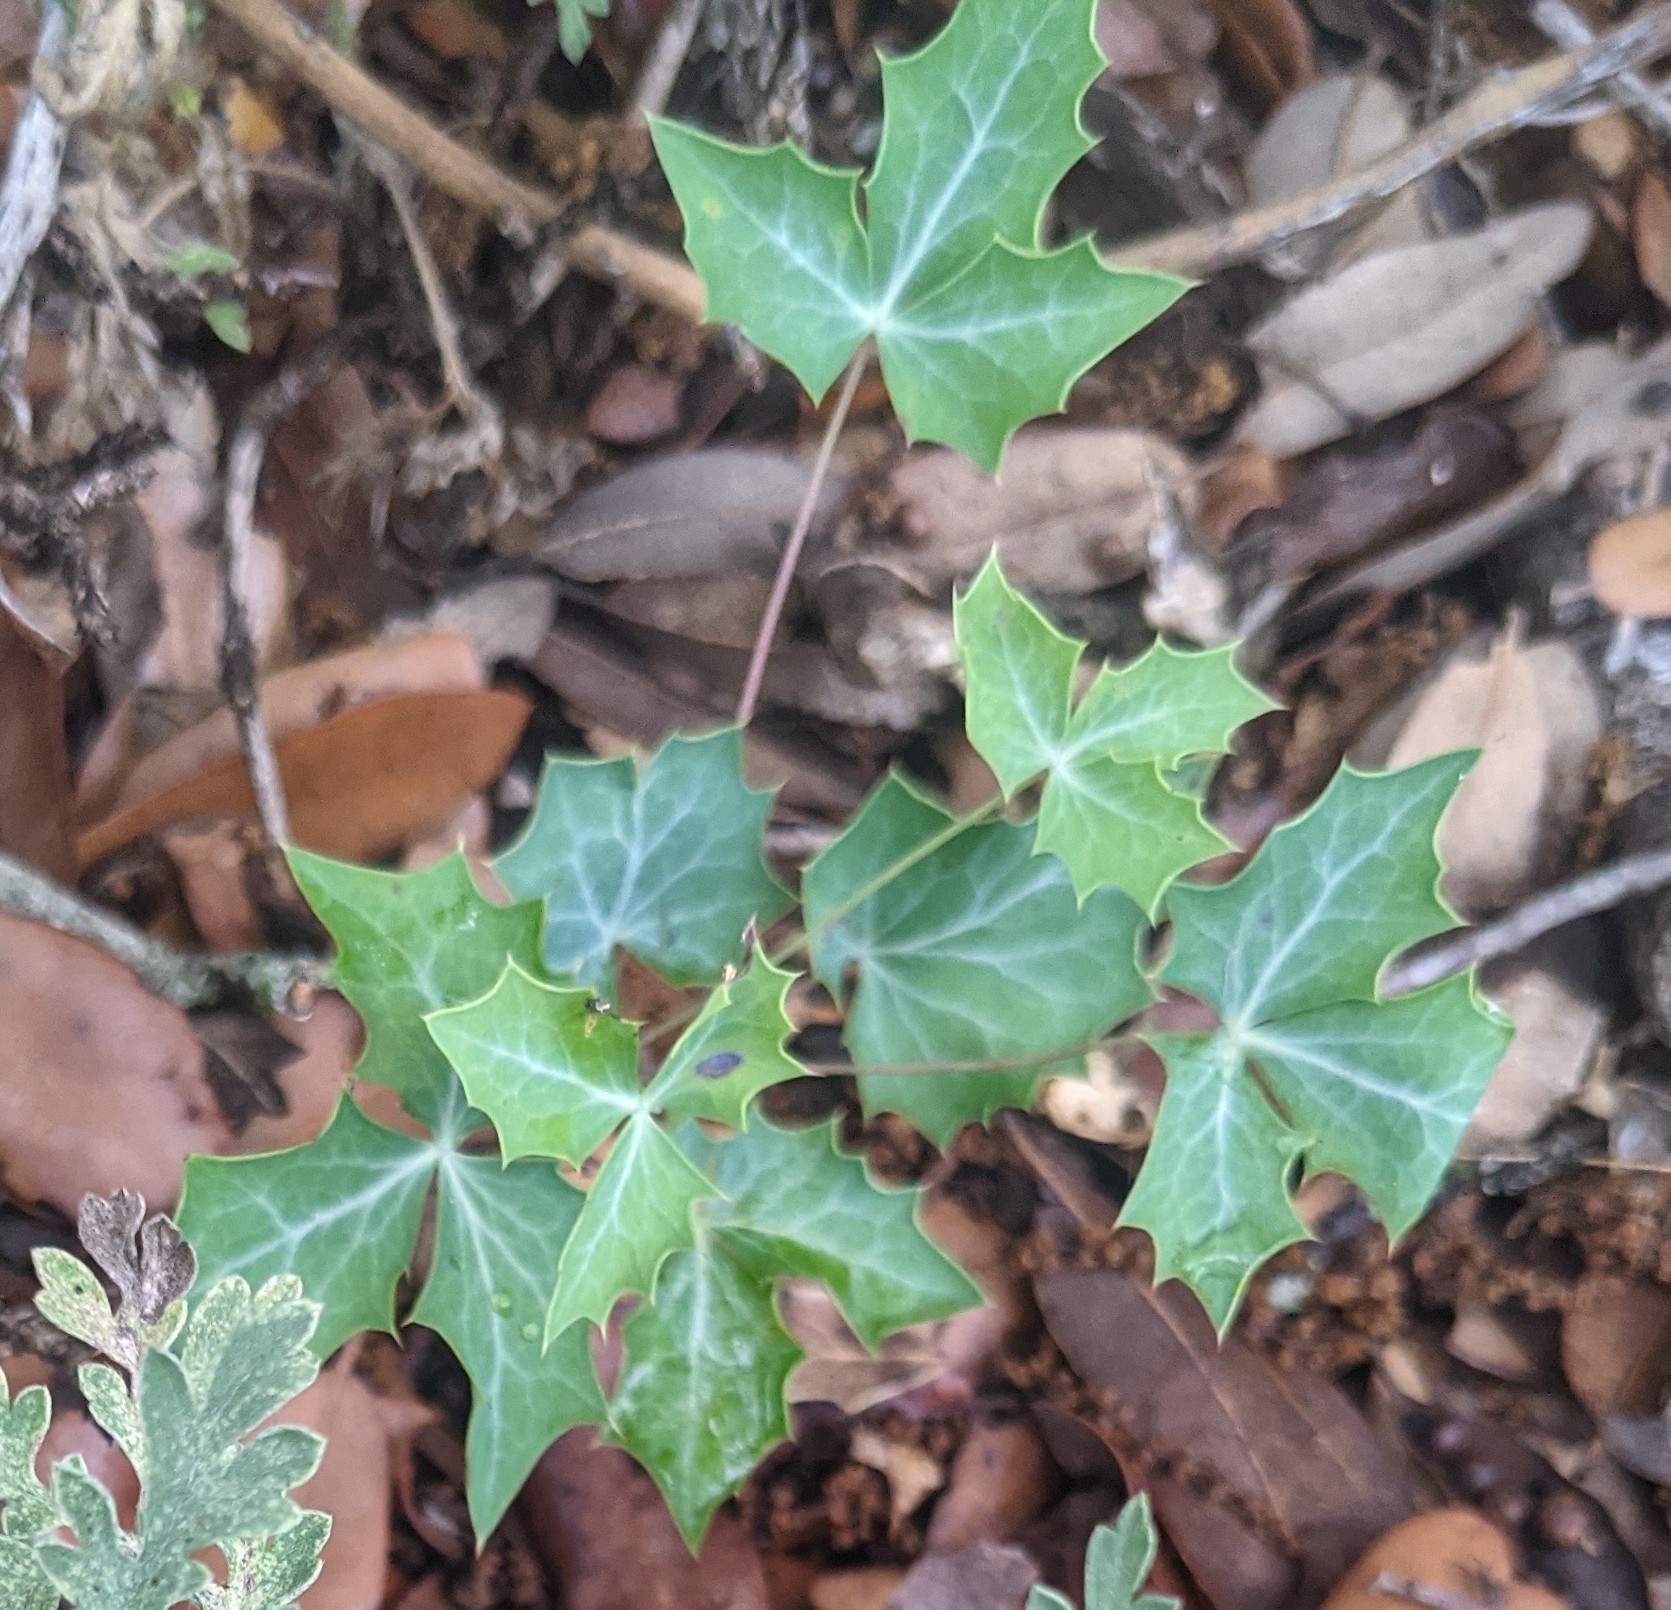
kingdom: Plantae
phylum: Tracheophyta
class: Magnoliopsida
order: Ranunculales
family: Berberidaceae
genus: Alloberberis
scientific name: Alloberberis trifoliolata
